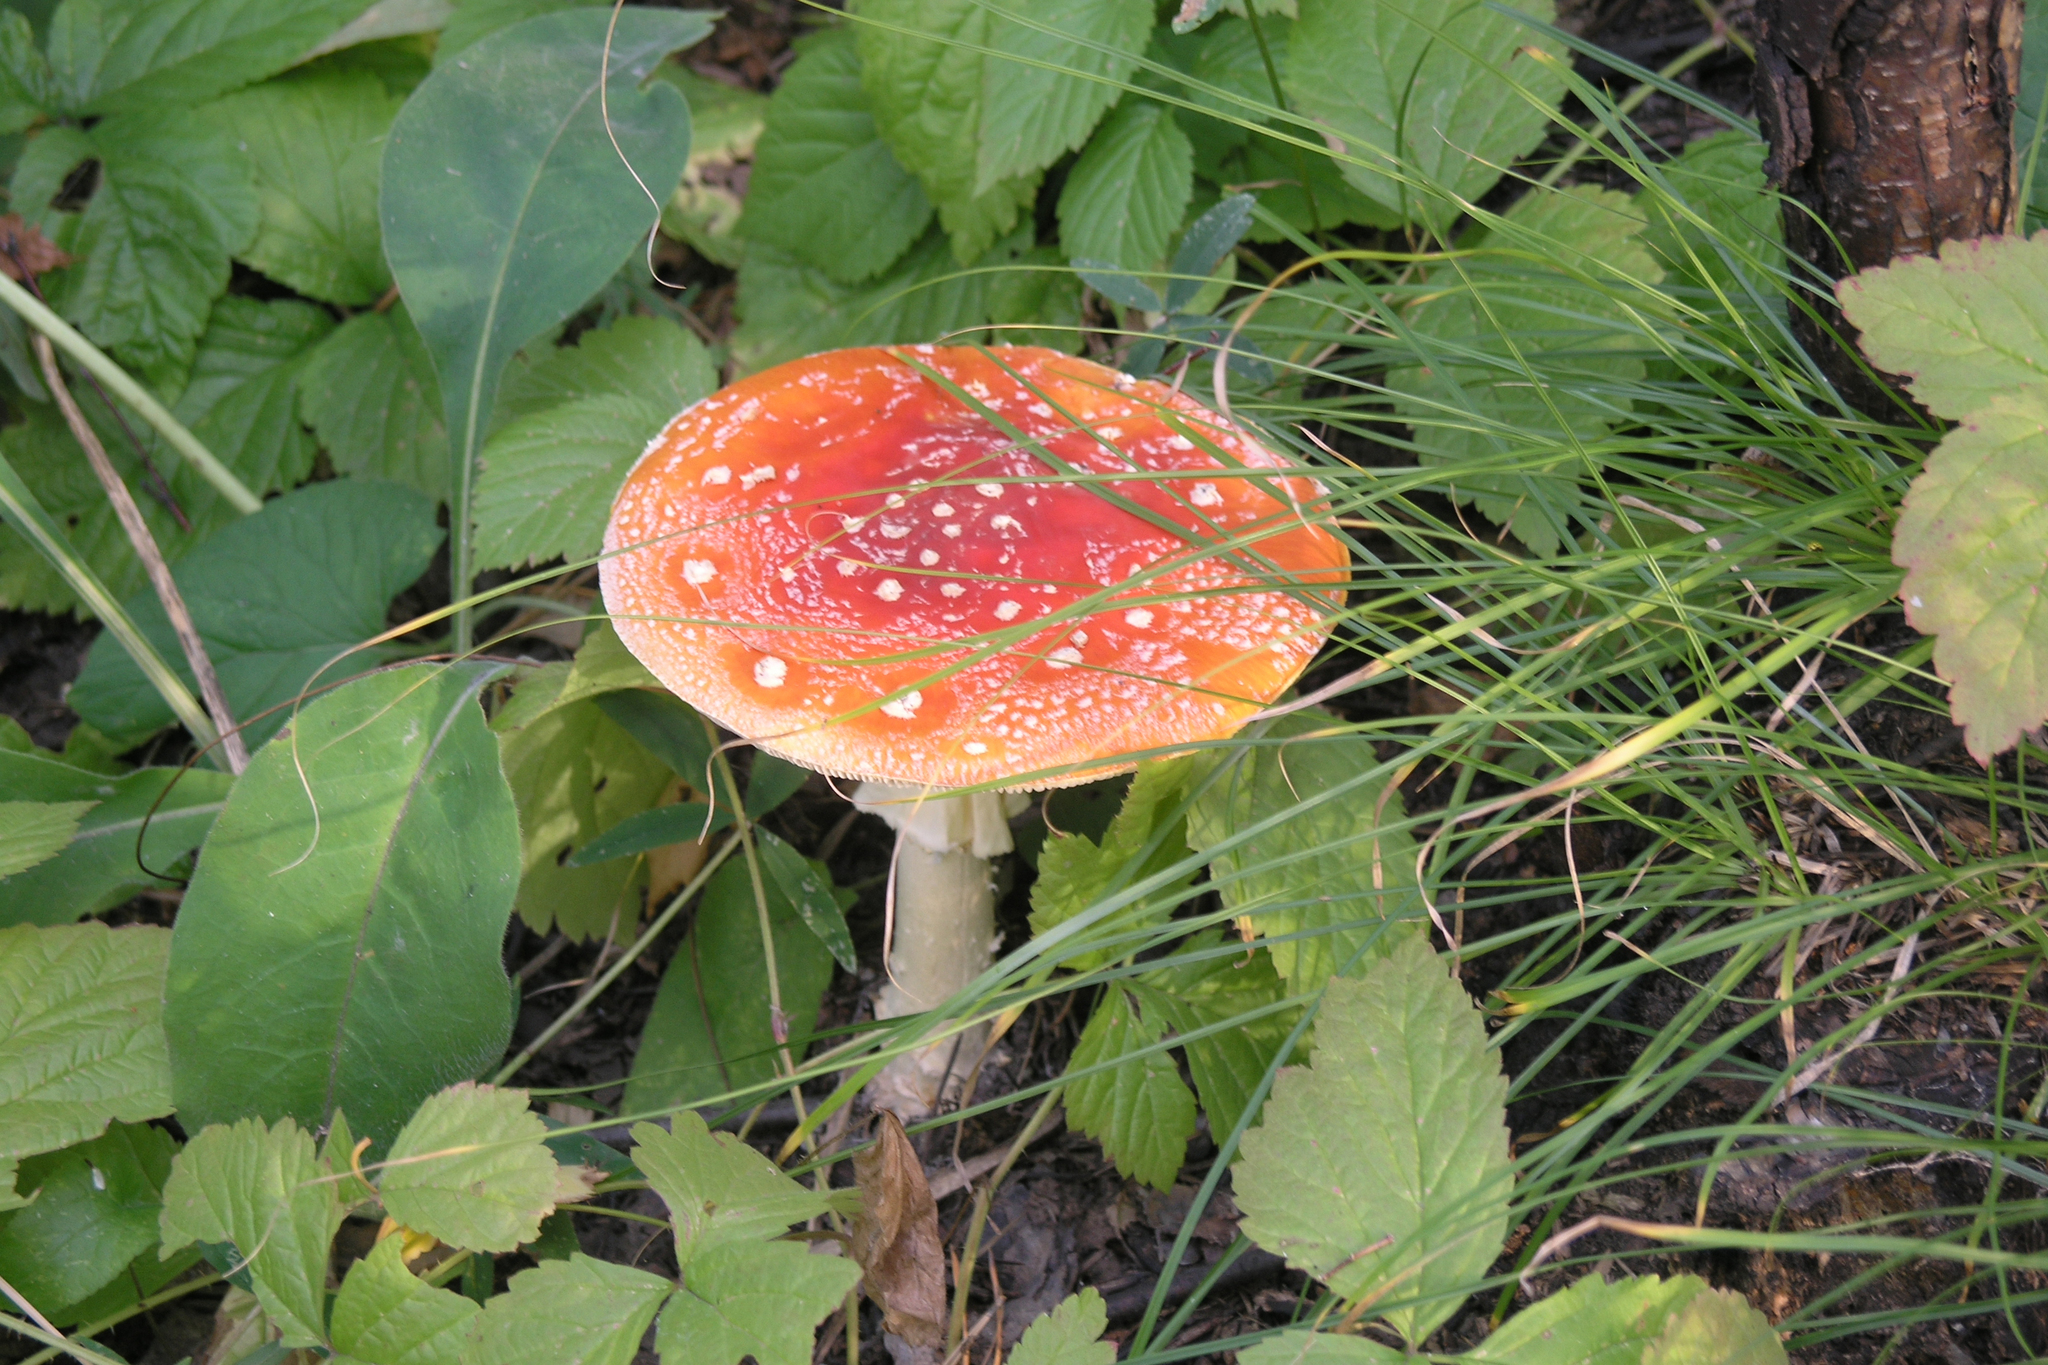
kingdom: Fungi
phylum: Basidiomycota
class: Agaricomycetes
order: Agaricales
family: Amanitaceae
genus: Amanita
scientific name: Amanita muscaria
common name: Fly agaric
